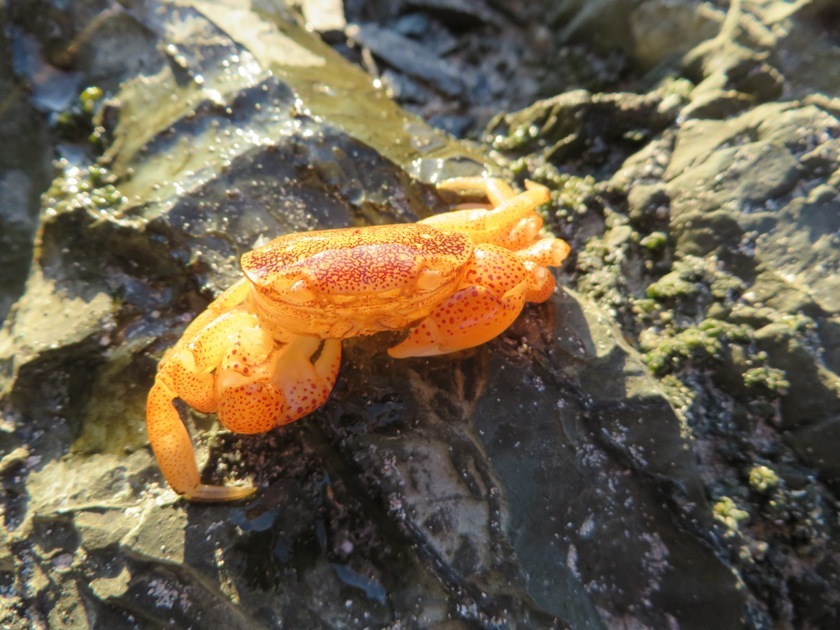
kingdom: Animalia
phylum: Arthropoda
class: Malacostraca
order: Decapoda
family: Varunidae
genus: Cyclograpsus
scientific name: Cyclograpsus punctatus
